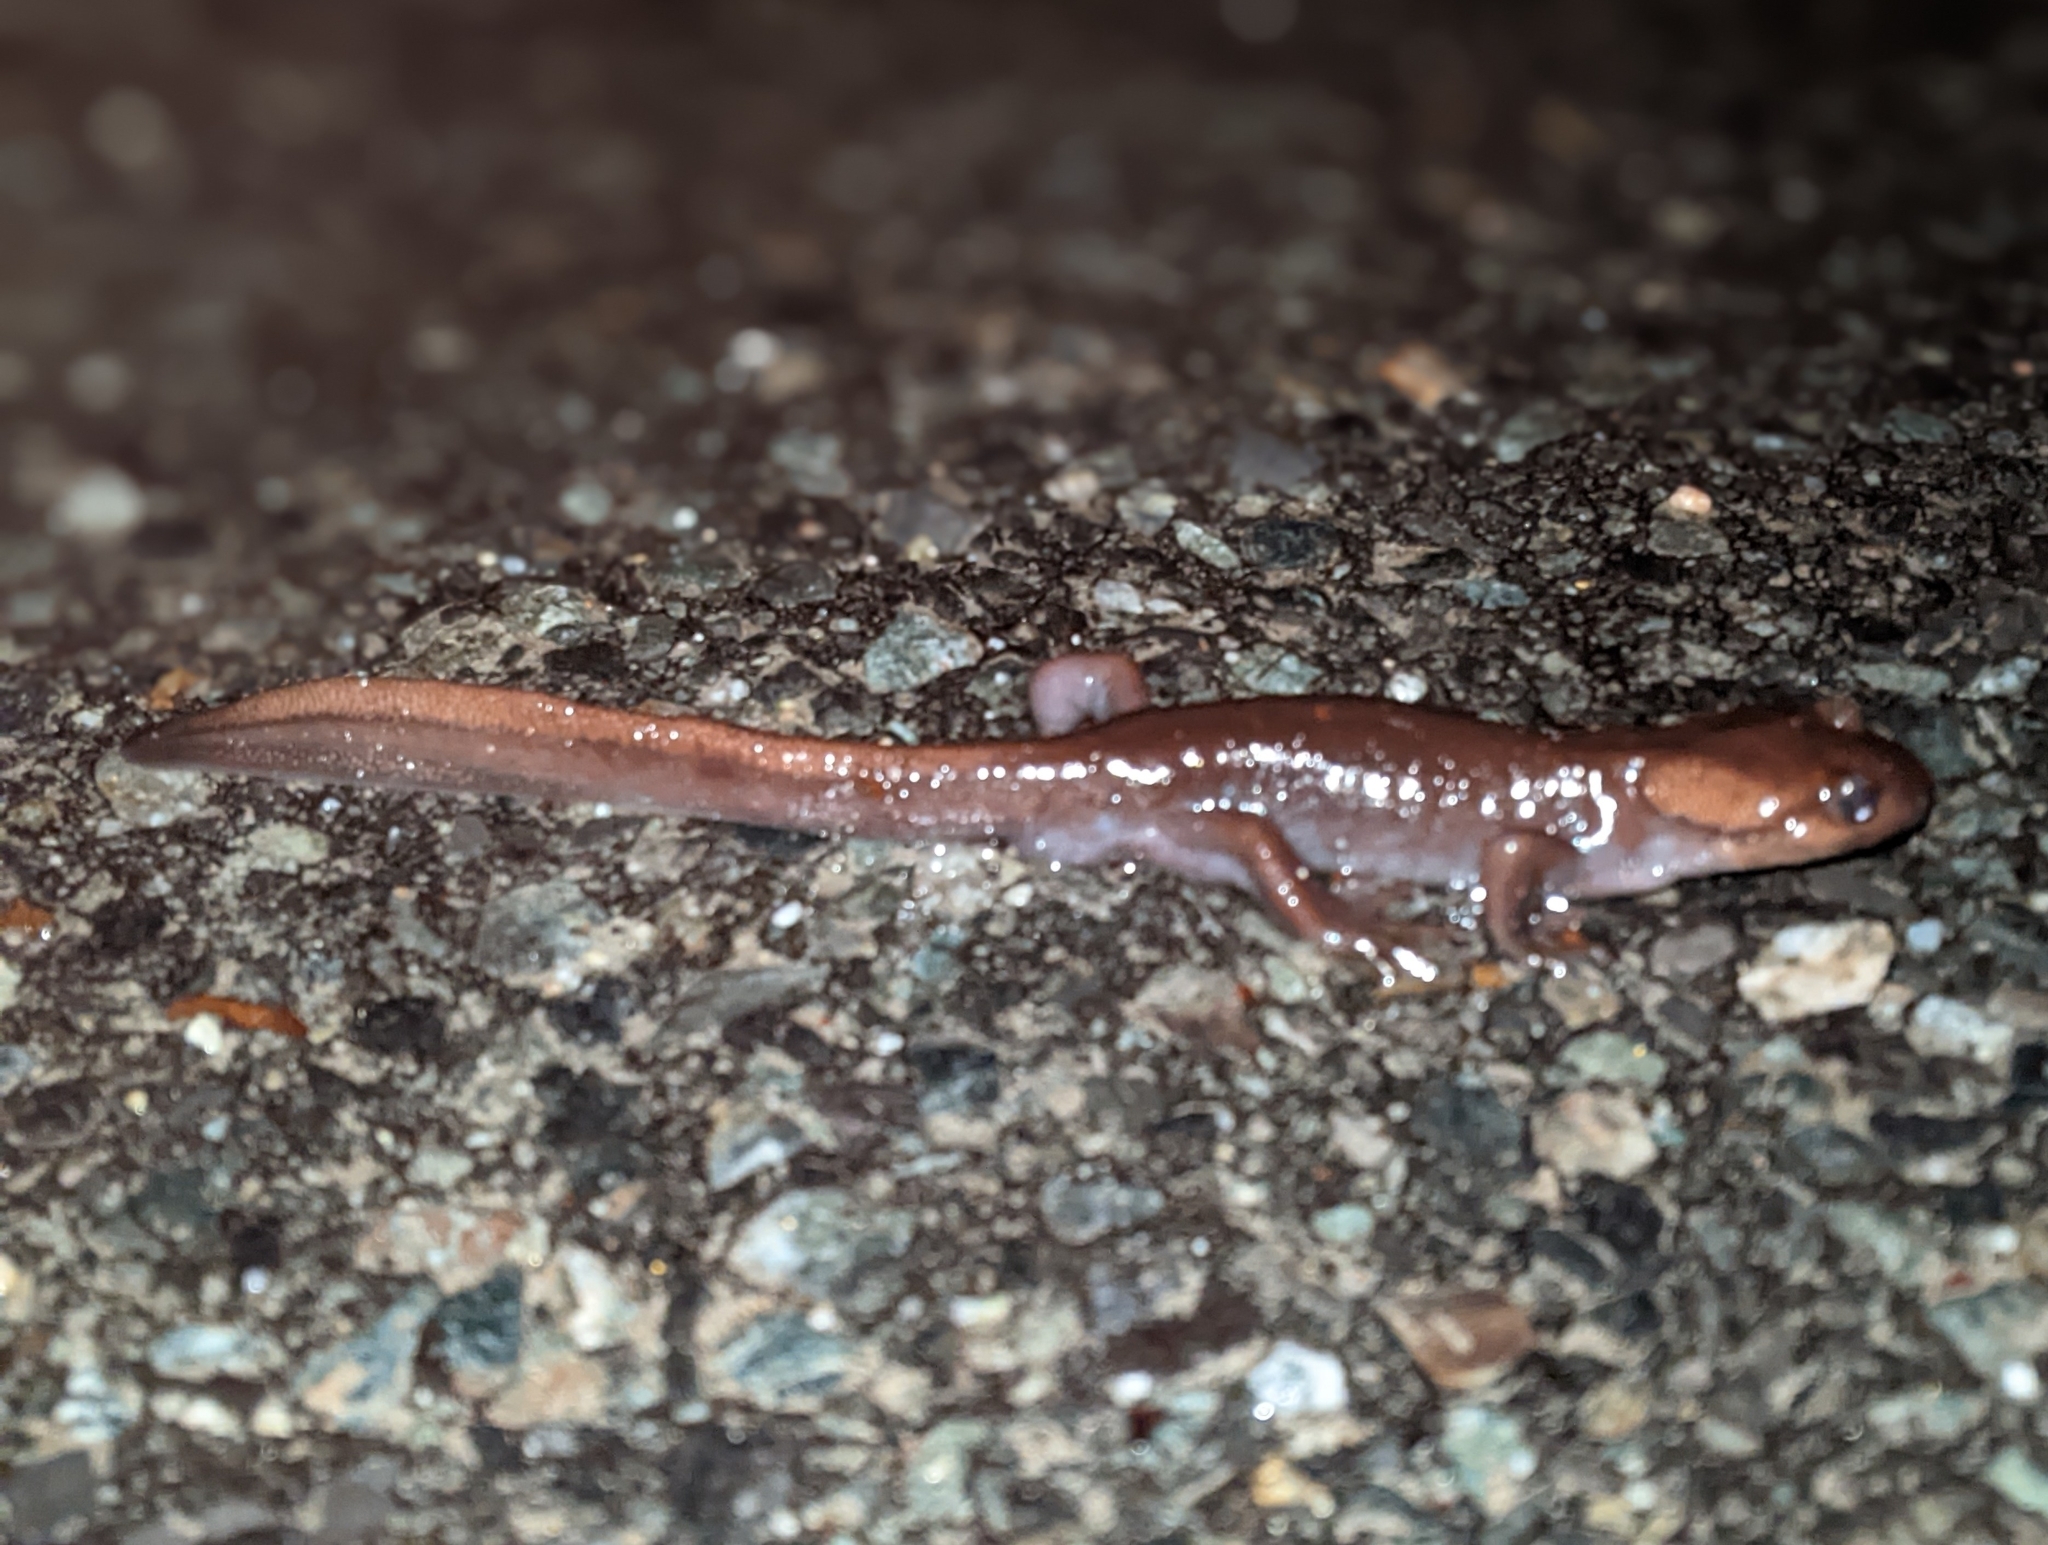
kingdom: Animalia
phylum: Chordata
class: Amphibia
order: Caudata
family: Ambystomatidae
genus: Ambystoma
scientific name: Ambystoma gracile
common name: Northwestern salamander
